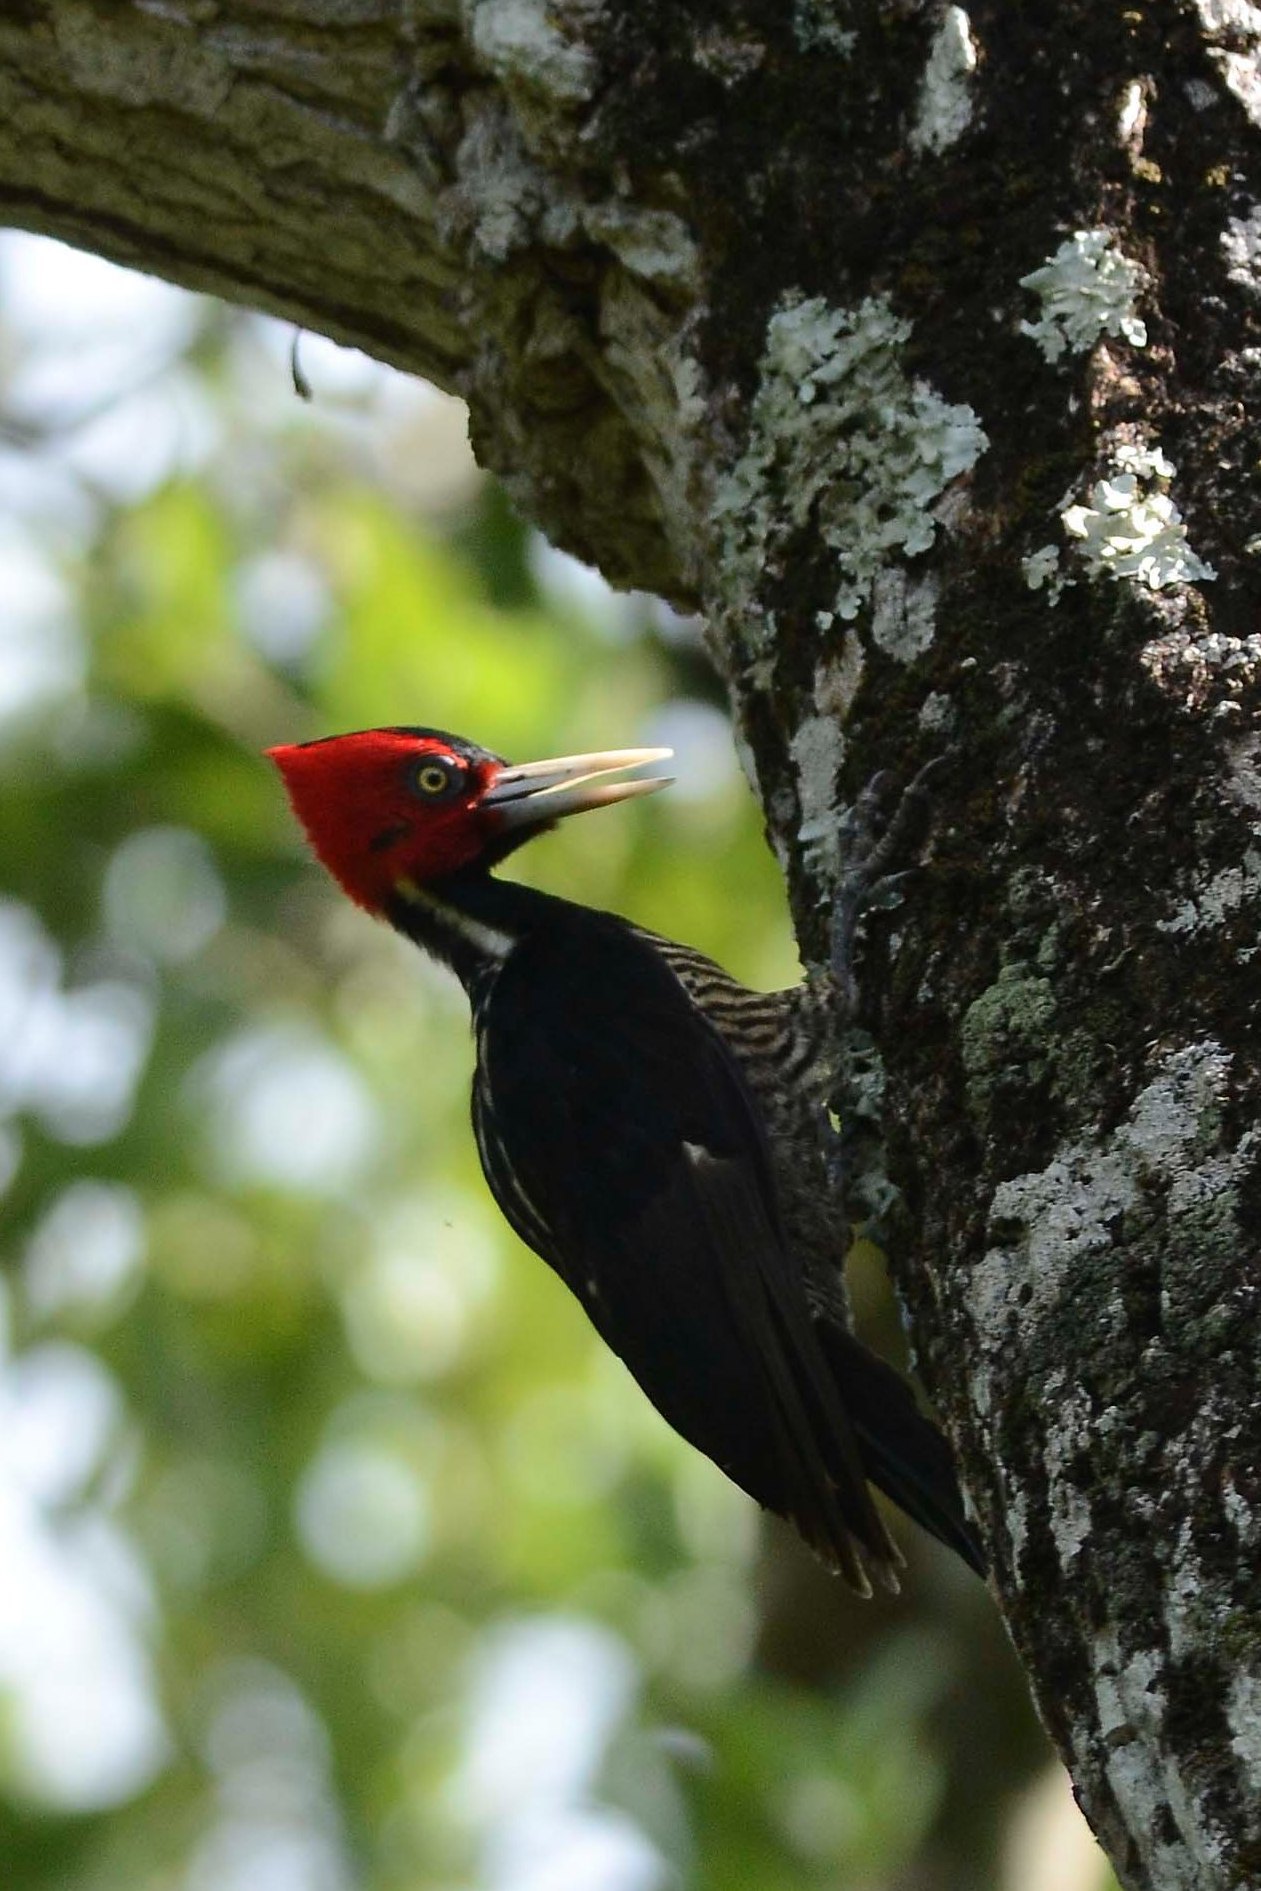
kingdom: Animalia
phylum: Chordata
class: Aves
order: Piciformes
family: Picidae
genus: Campephilus
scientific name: Campephilus guatemalensis
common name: Pale-billed woodpecker
